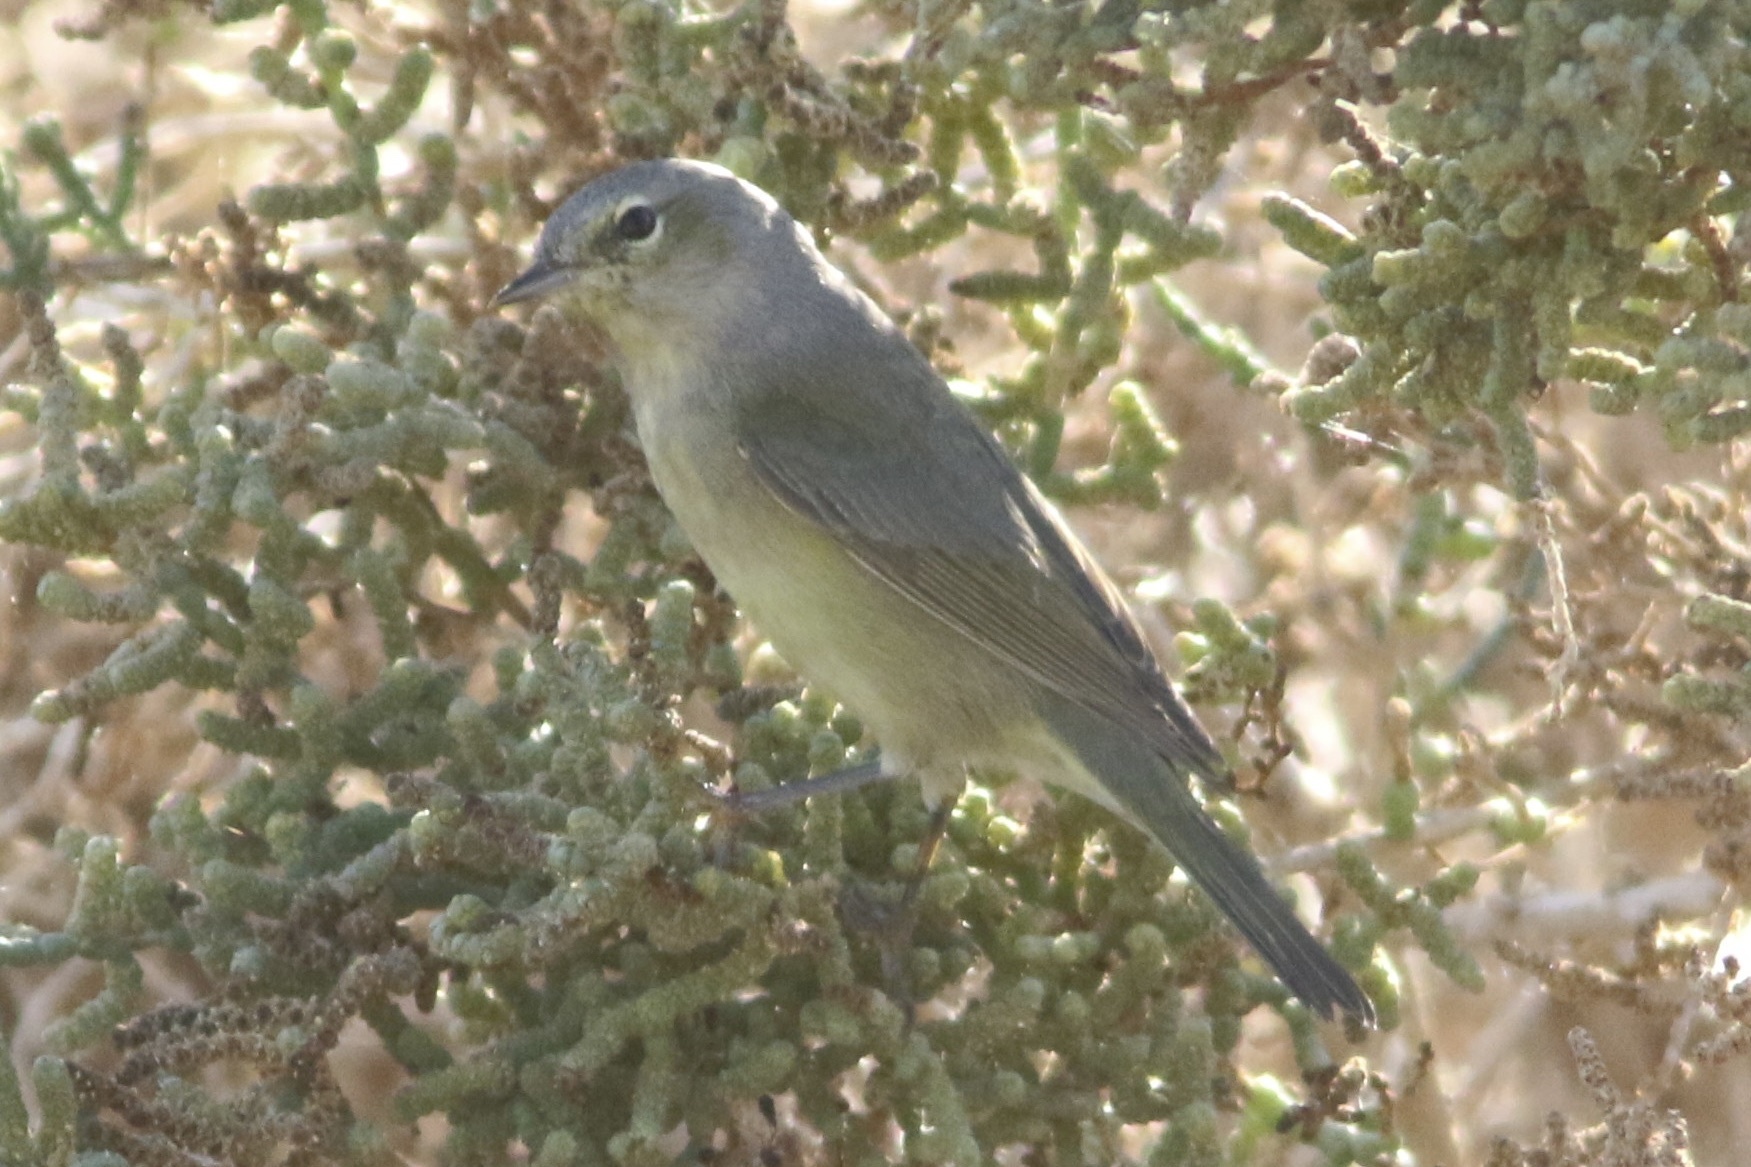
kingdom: Animalia
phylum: Chordata
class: Aves
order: Passeriformes
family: Parulidae
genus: Leiothlypis
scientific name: Leiothlypis celata
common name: Orange-crowned warbler
